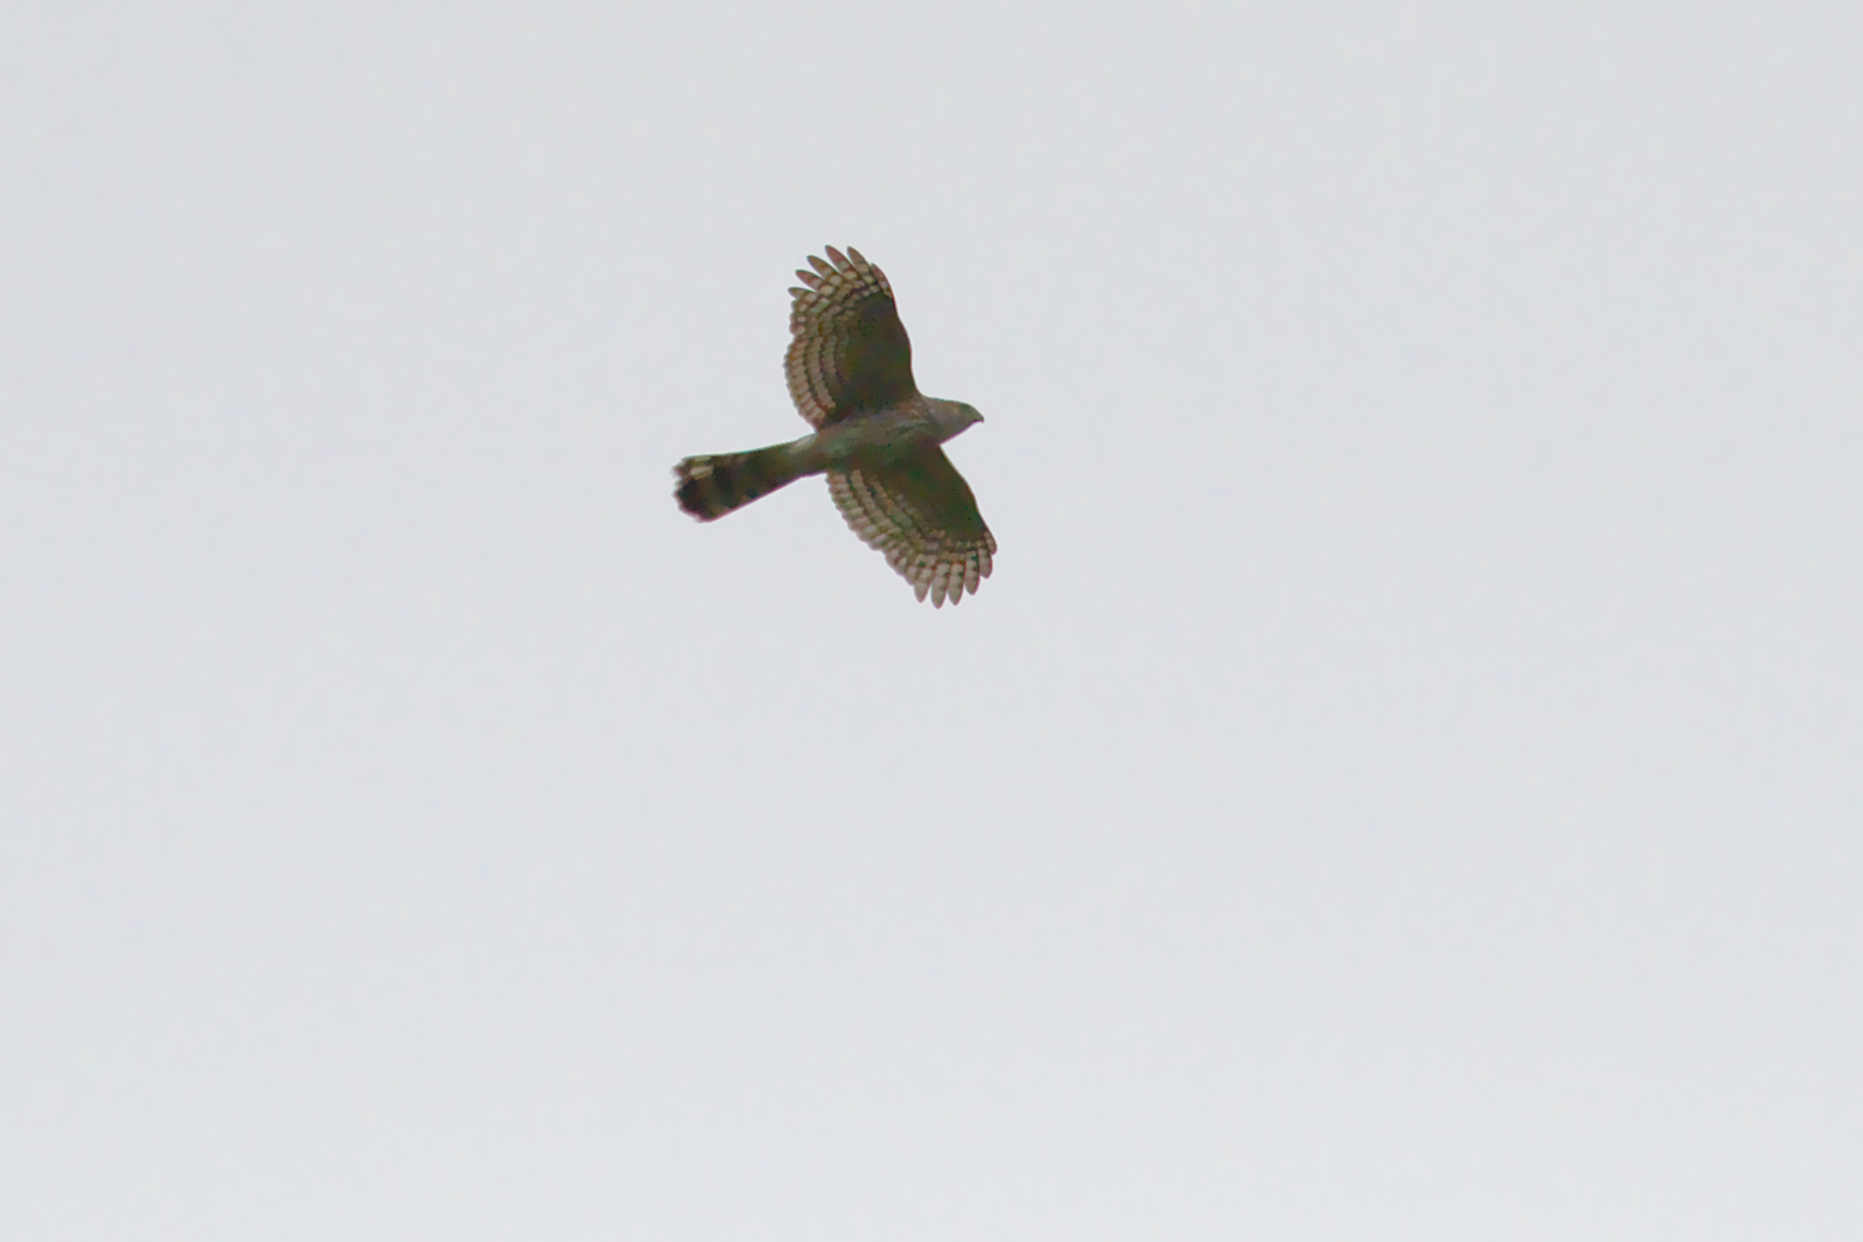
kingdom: Animalia
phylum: Chordata
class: Aves
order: Accipitriformes
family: Accipitridae
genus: Accipiter
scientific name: Accipiter cooperii
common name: Cooper's hawk
